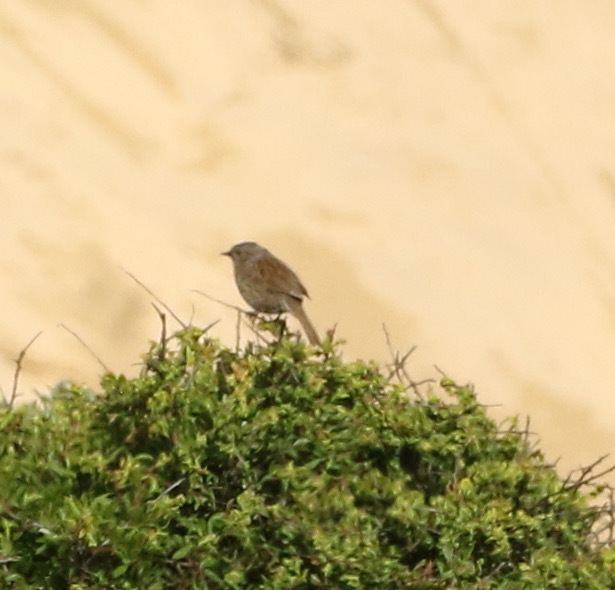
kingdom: Animalia
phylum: Chordata
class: Aves
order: Passeriformes
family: Prunellidae
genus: Prunella
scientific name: Prunella modularis
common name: Dunnock
